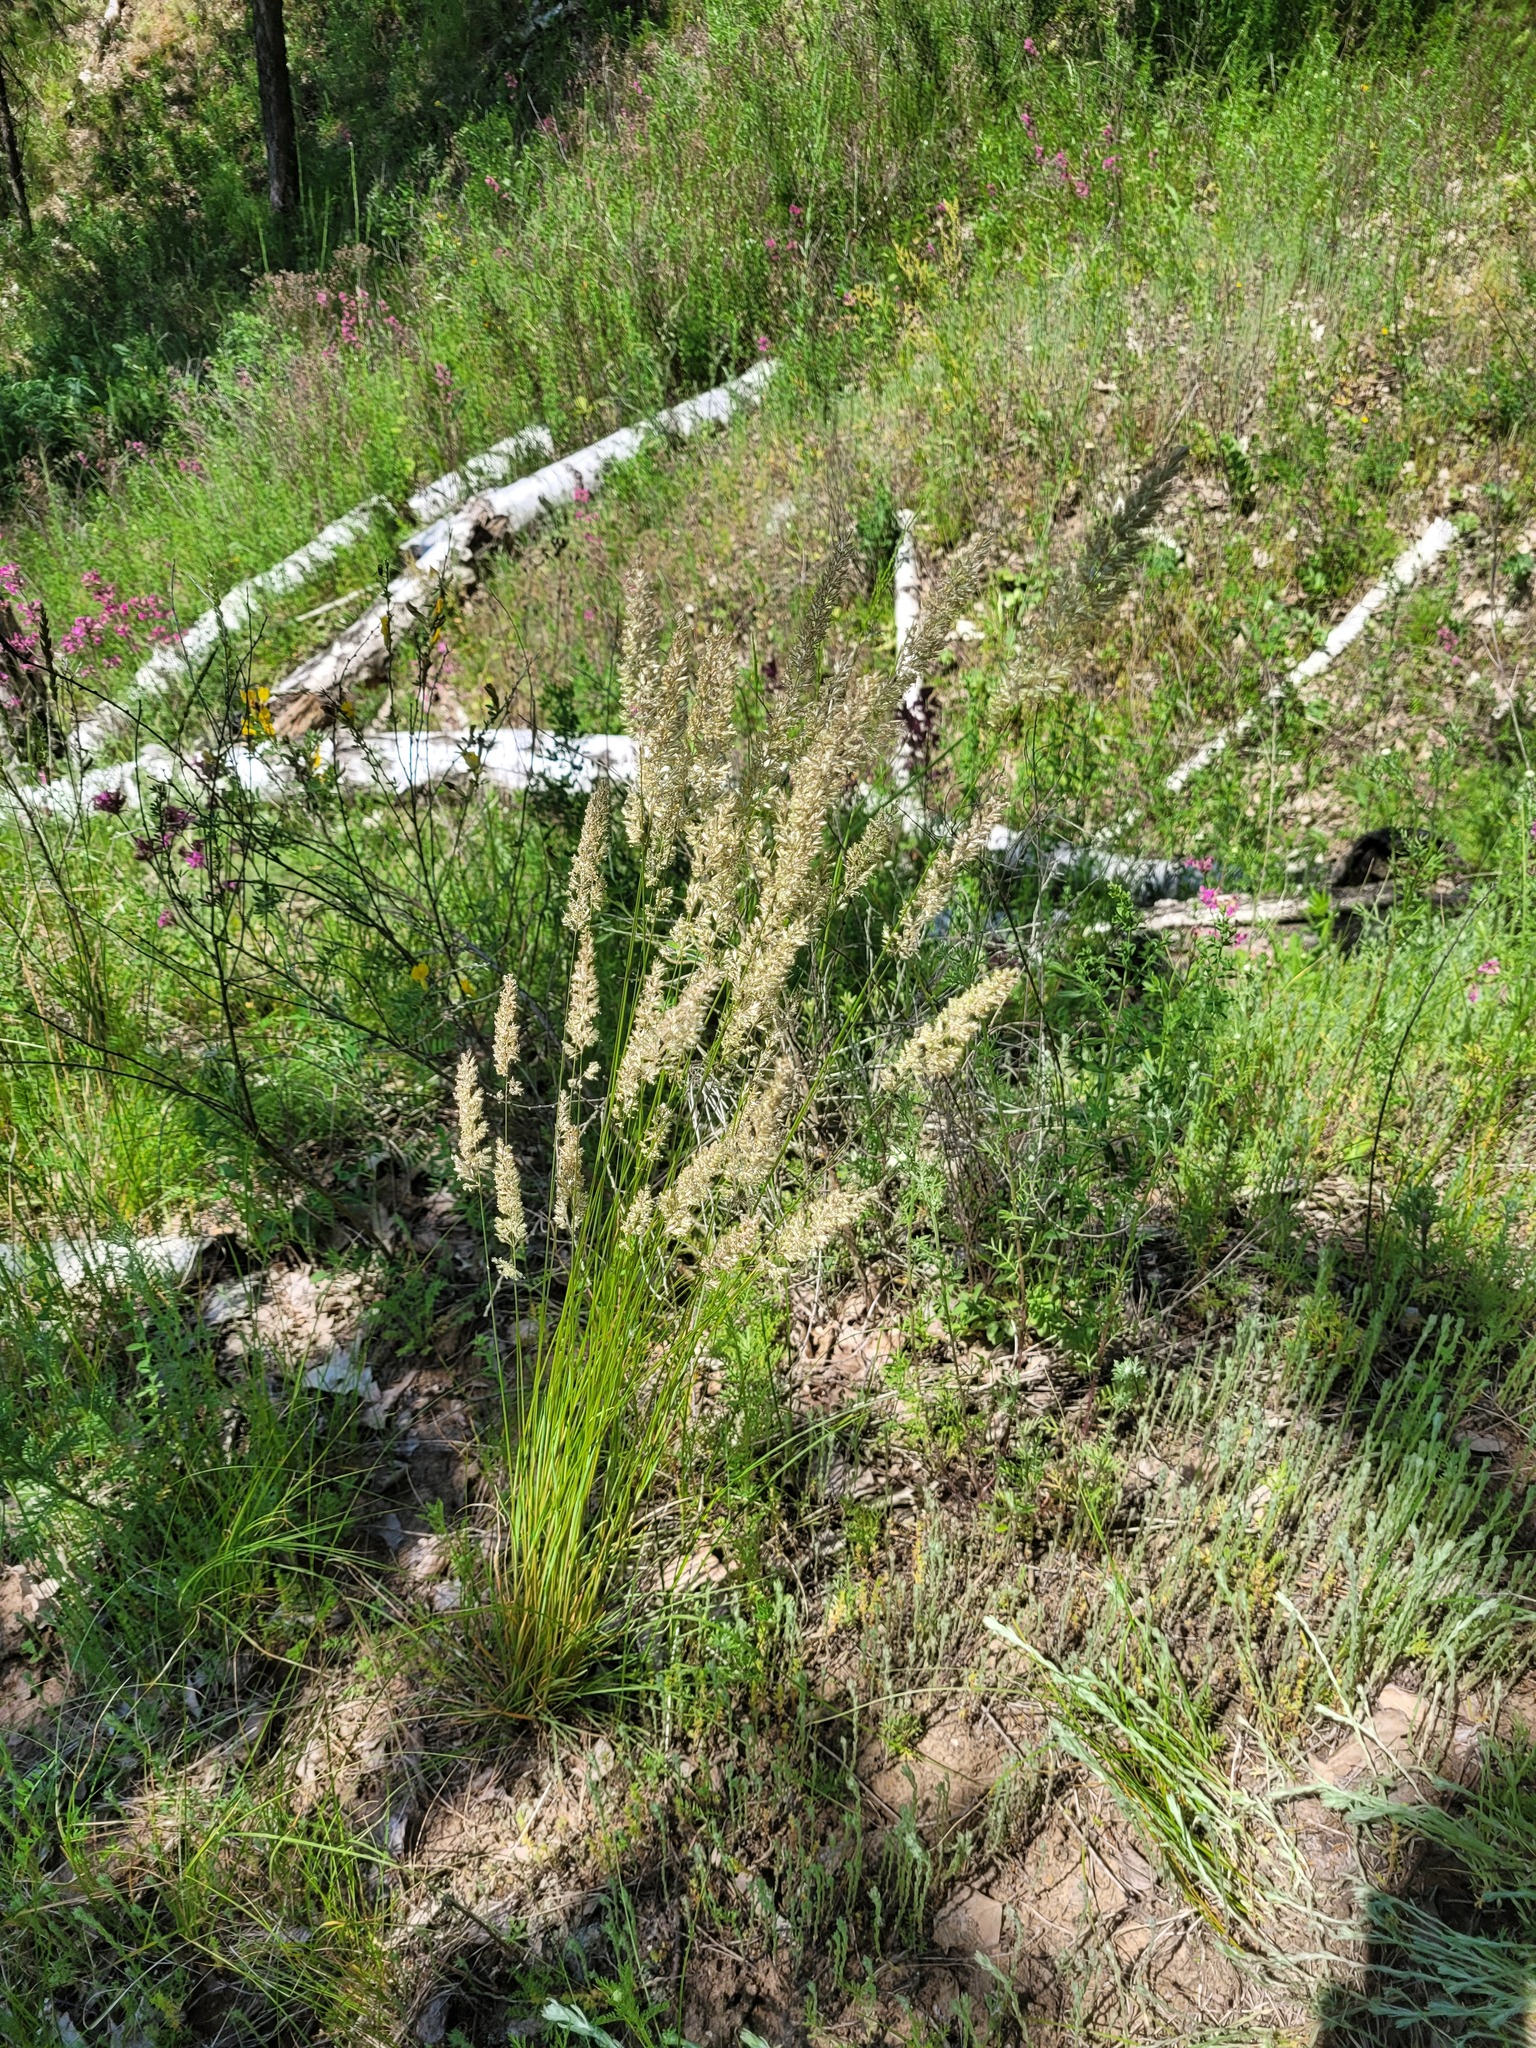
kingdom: Plantae
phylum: Tracheophyta
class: Liliopsida
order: Poales
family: Poaceae
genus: Koeleria
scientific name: Koeleria macrantha
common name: Crested hair-grass
